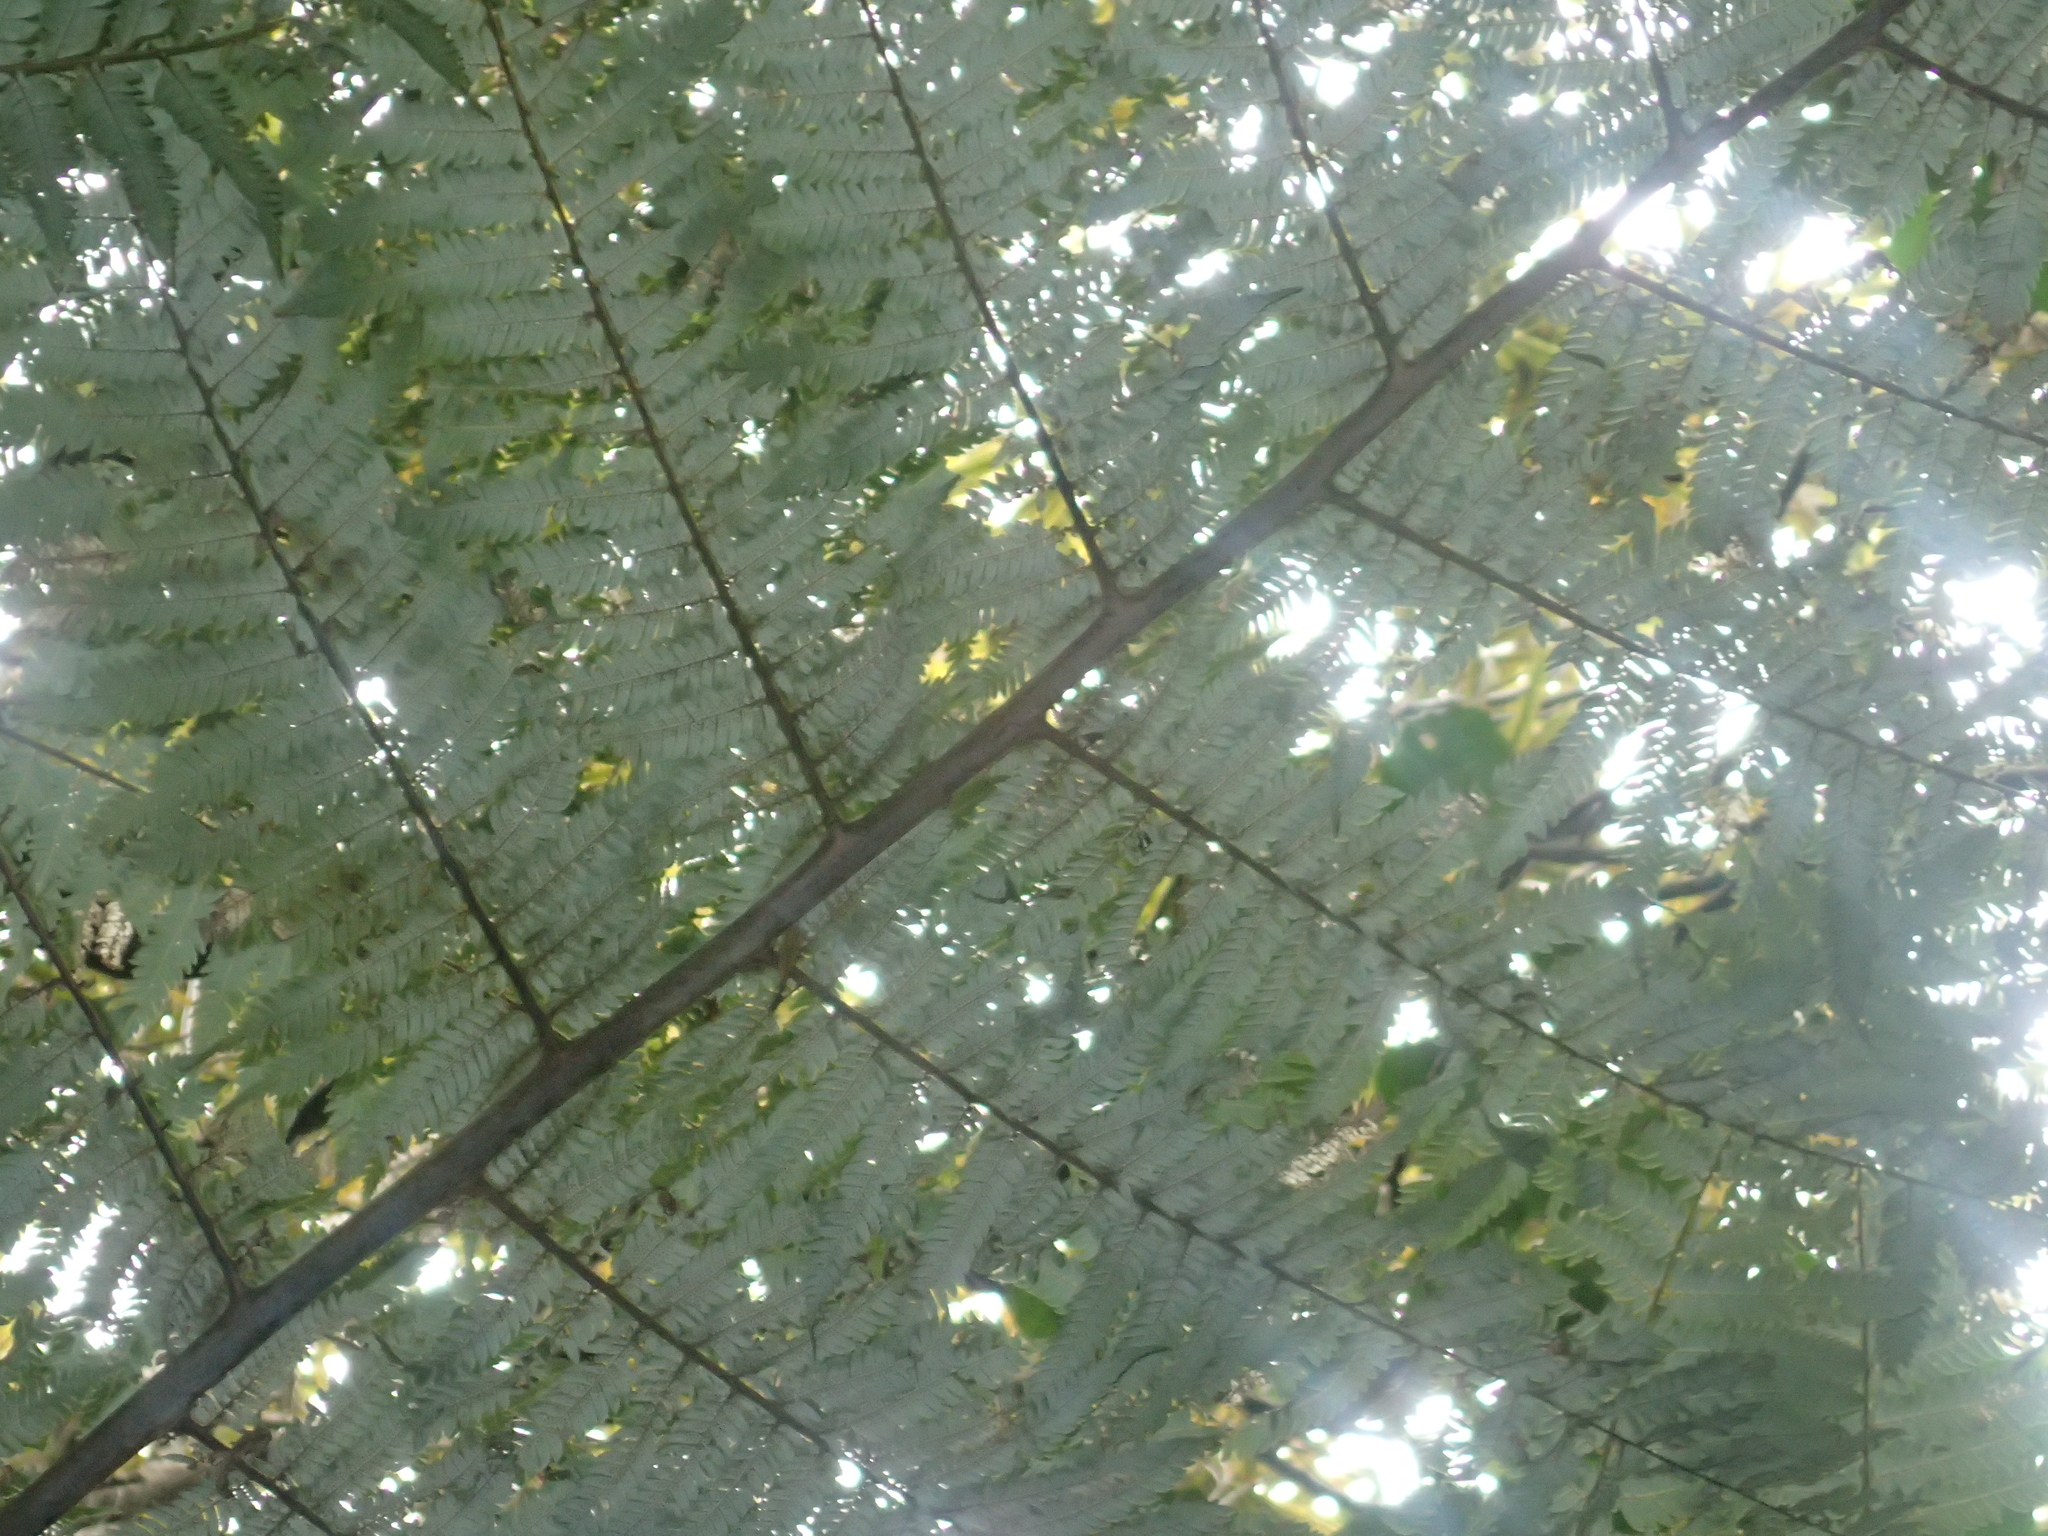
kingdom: Plantae
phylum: Tracheophyta
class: Polypodiopsida
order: Cyatheales
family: Cyatheaceae
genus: Alsophila
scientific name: Alsophila dealbata
